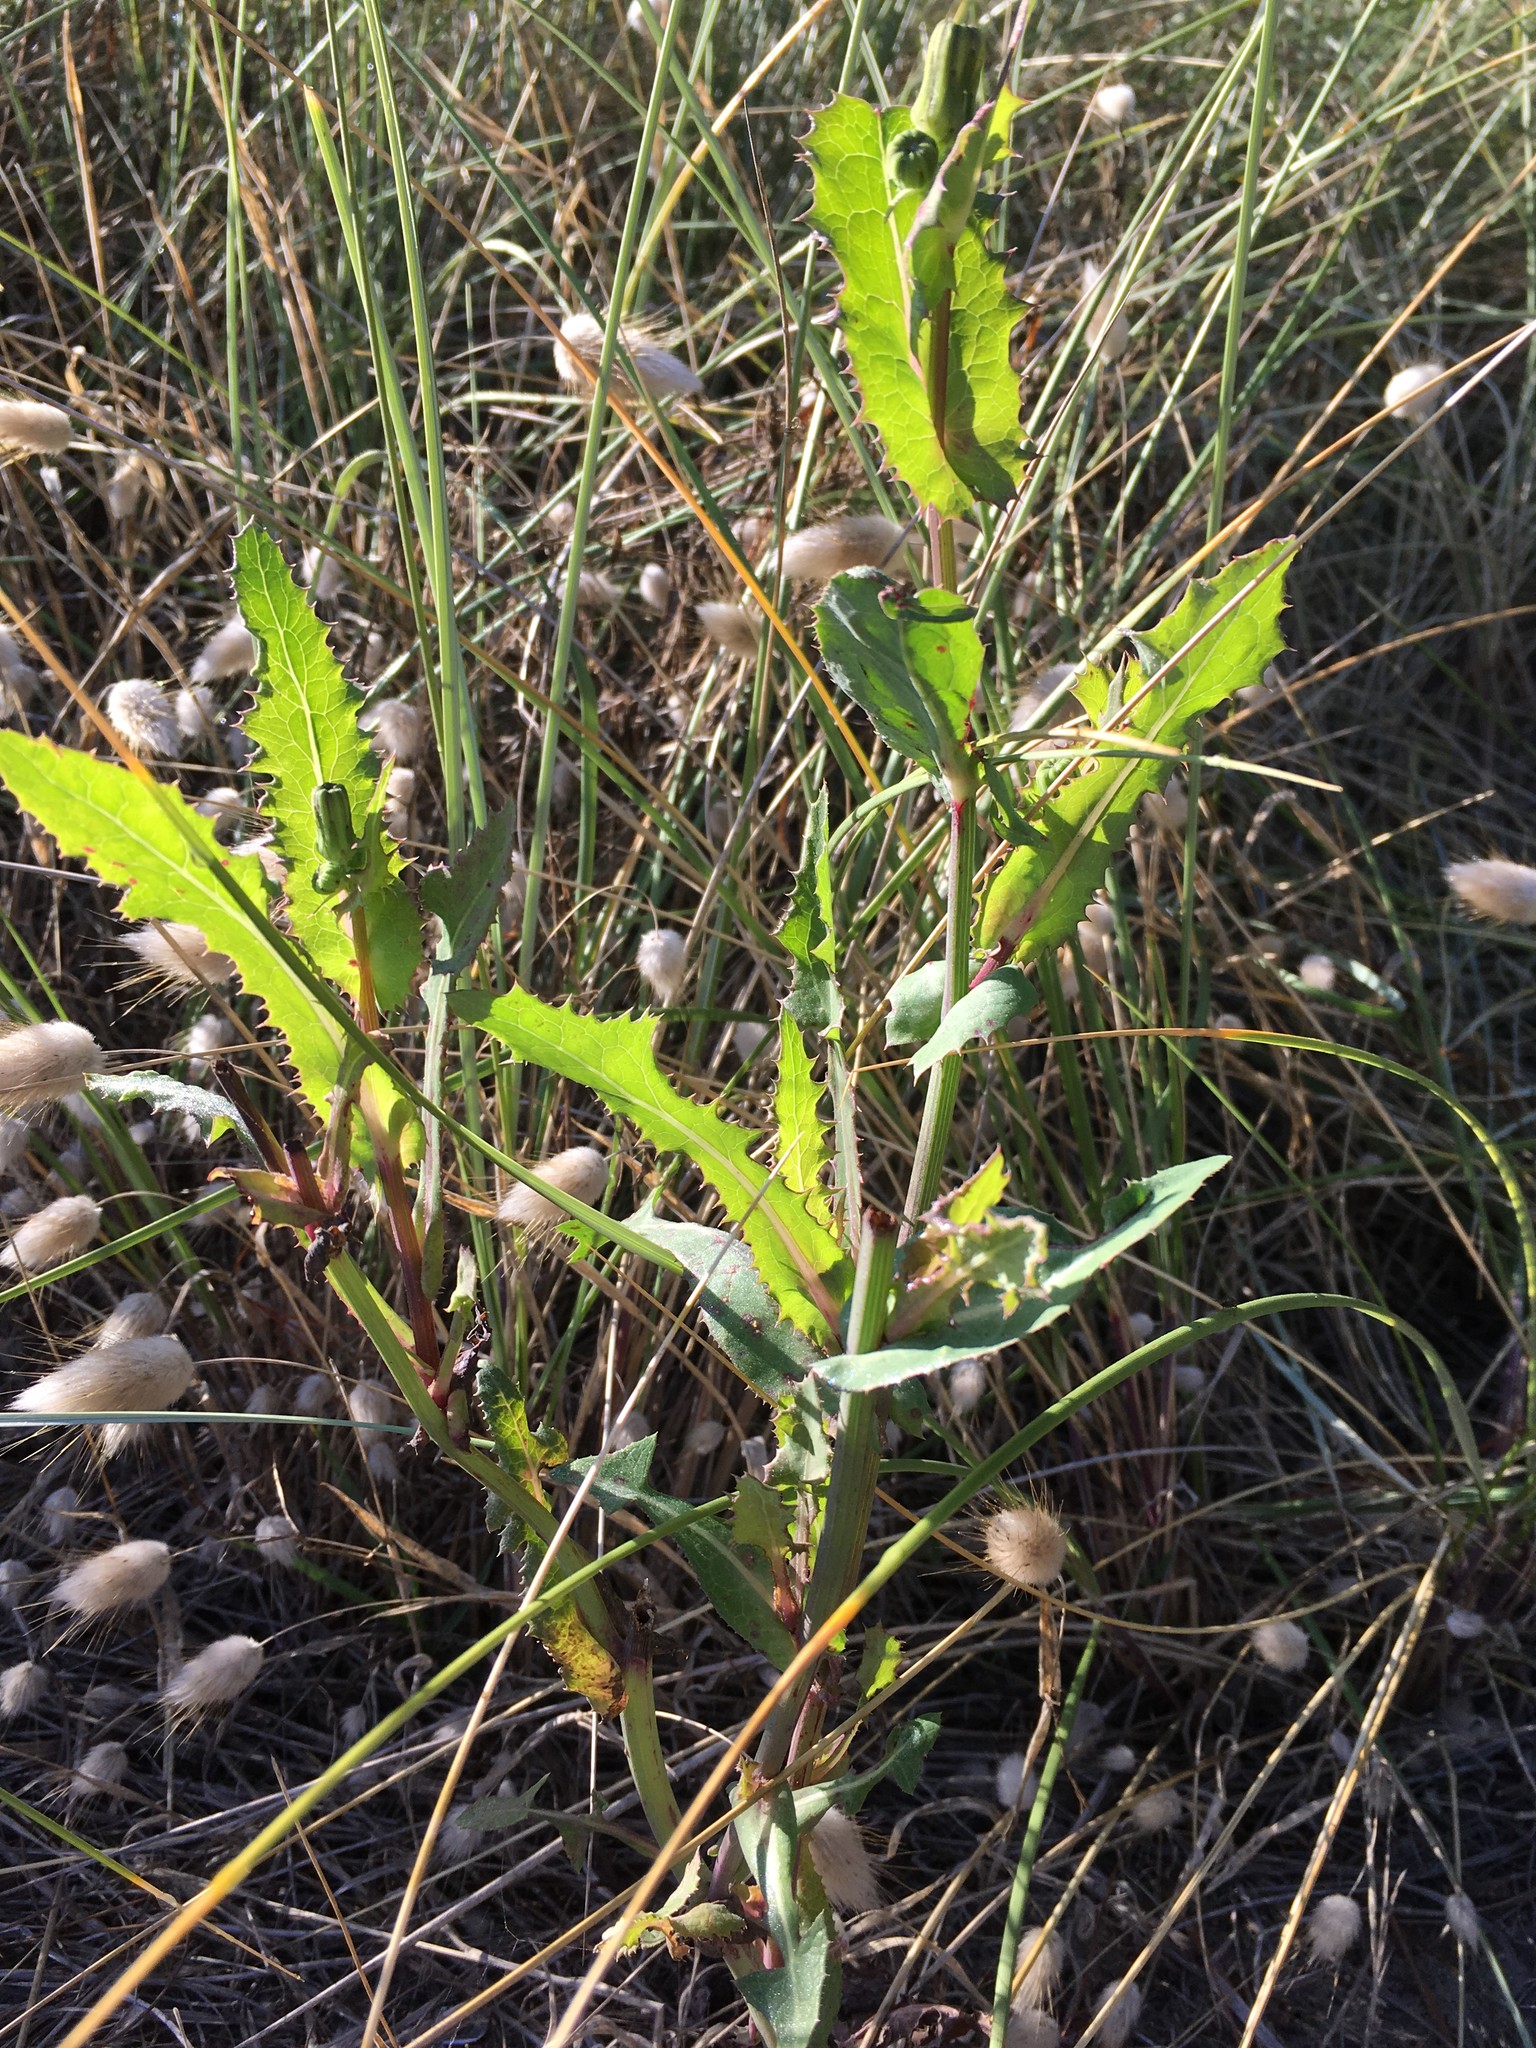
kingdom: Plantae
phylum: Tracheophyta
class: Magnoliopsida
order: Asterales
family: Asteraceae
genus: Sonchus
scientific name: Sonchus asper
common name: Prickly sow-thistle
